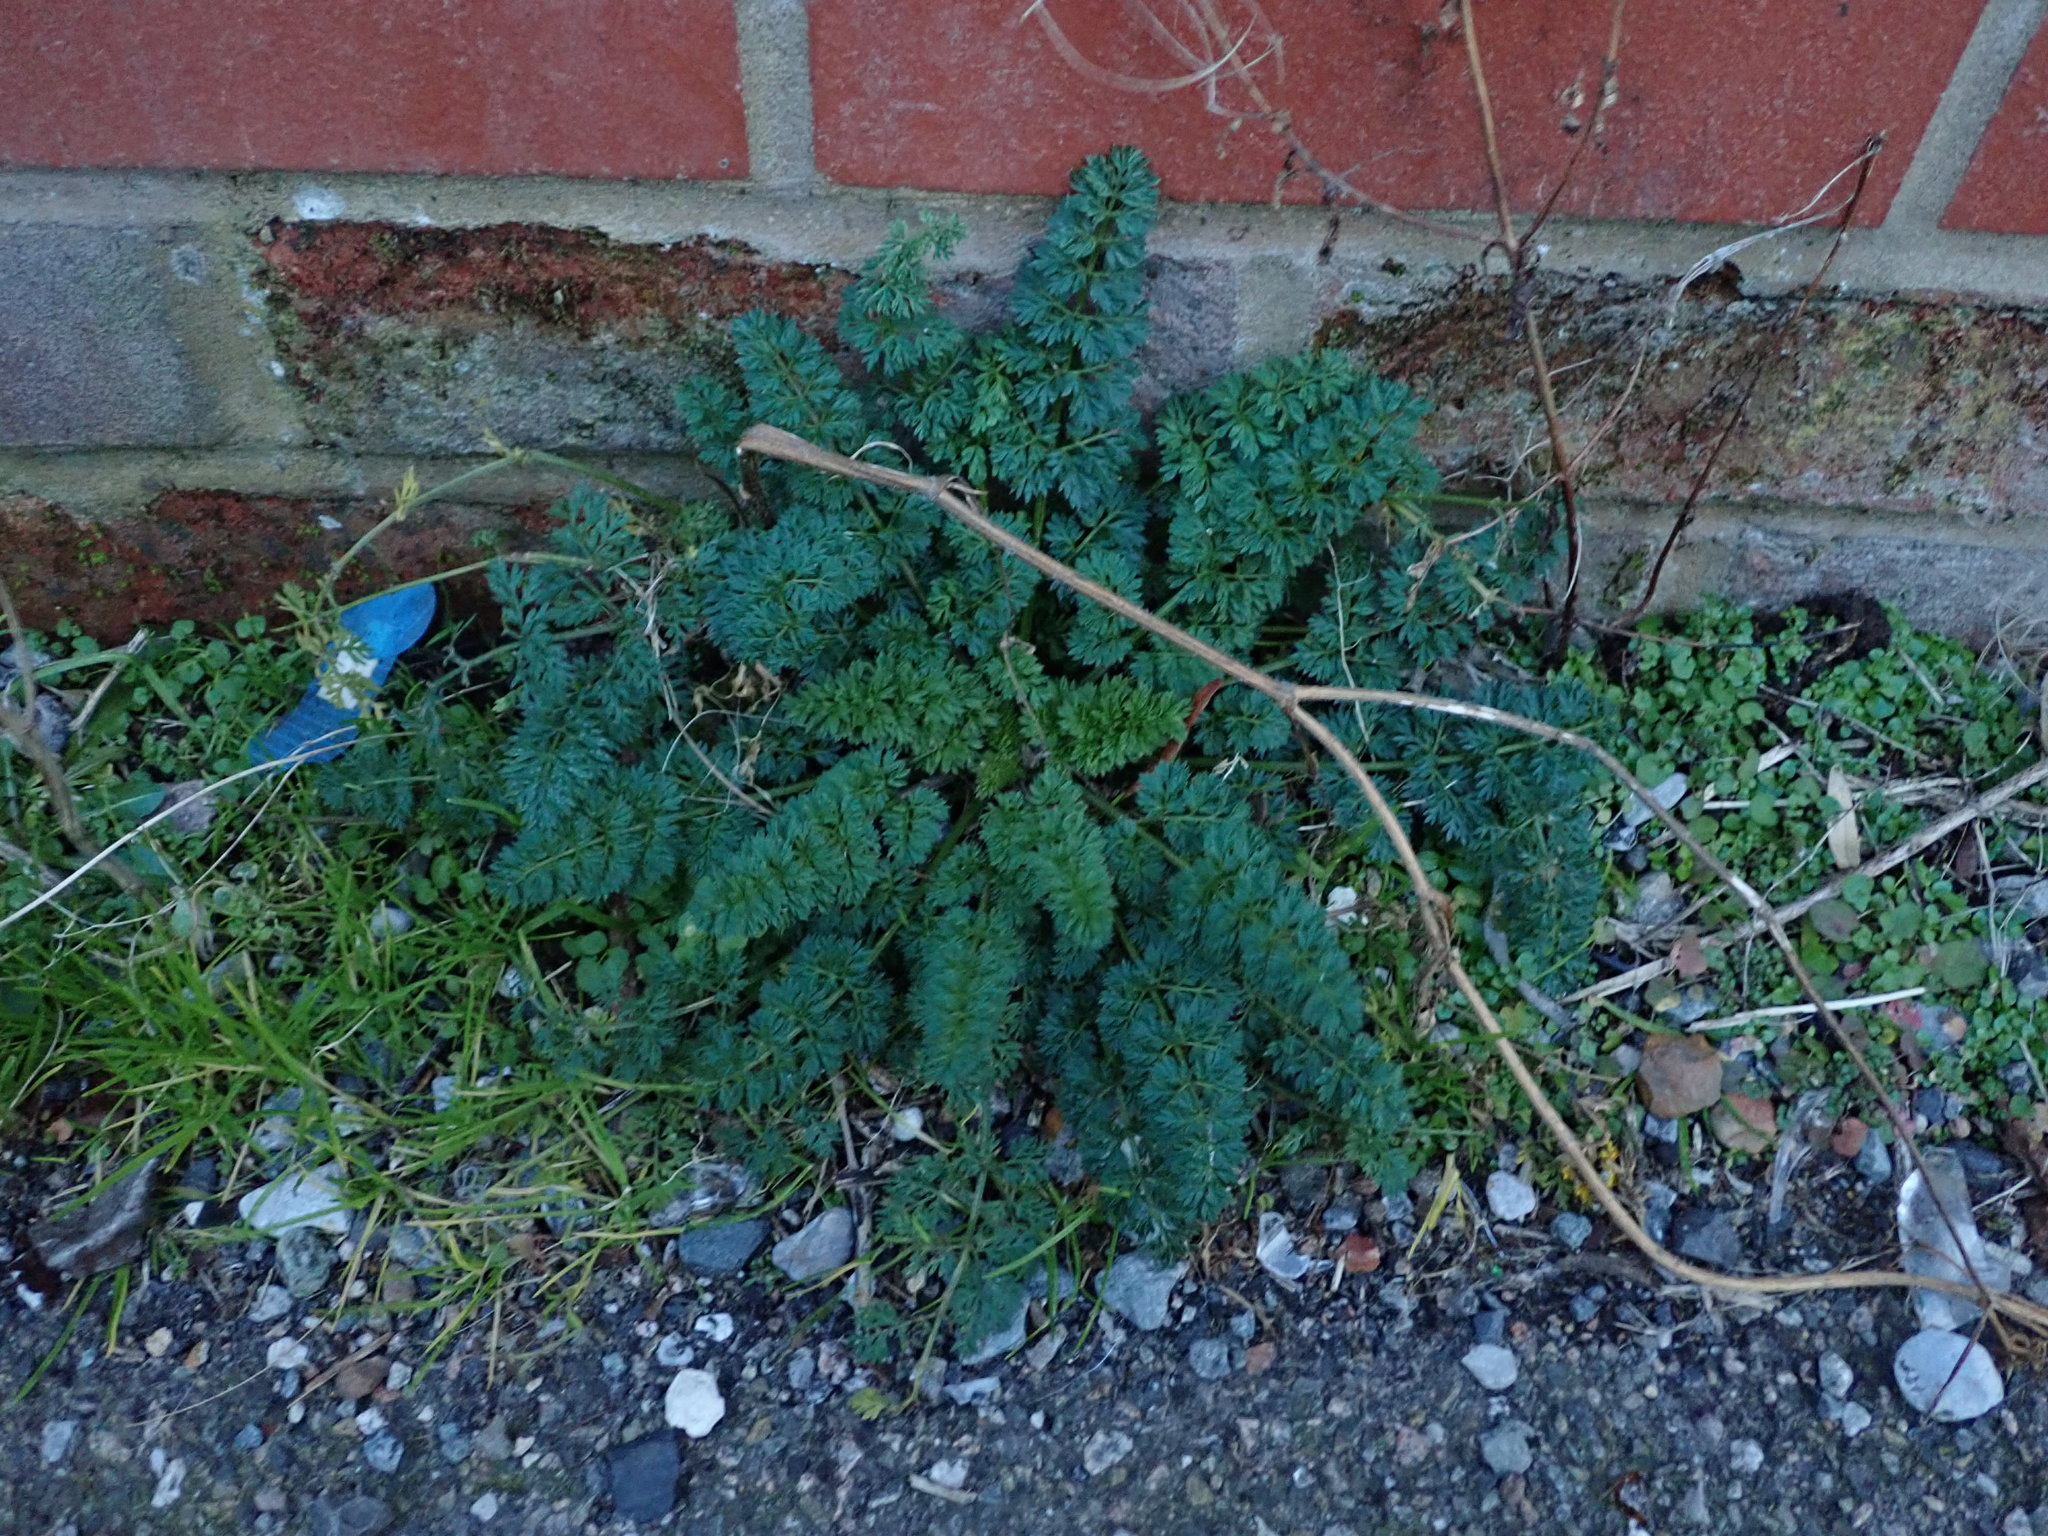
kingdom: Plantae
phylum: Tracheophyta
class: Magnoliopsida
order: Apiales
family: Apiaceae
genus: Daucus
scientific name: Daucus carota
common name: Wild carrot
